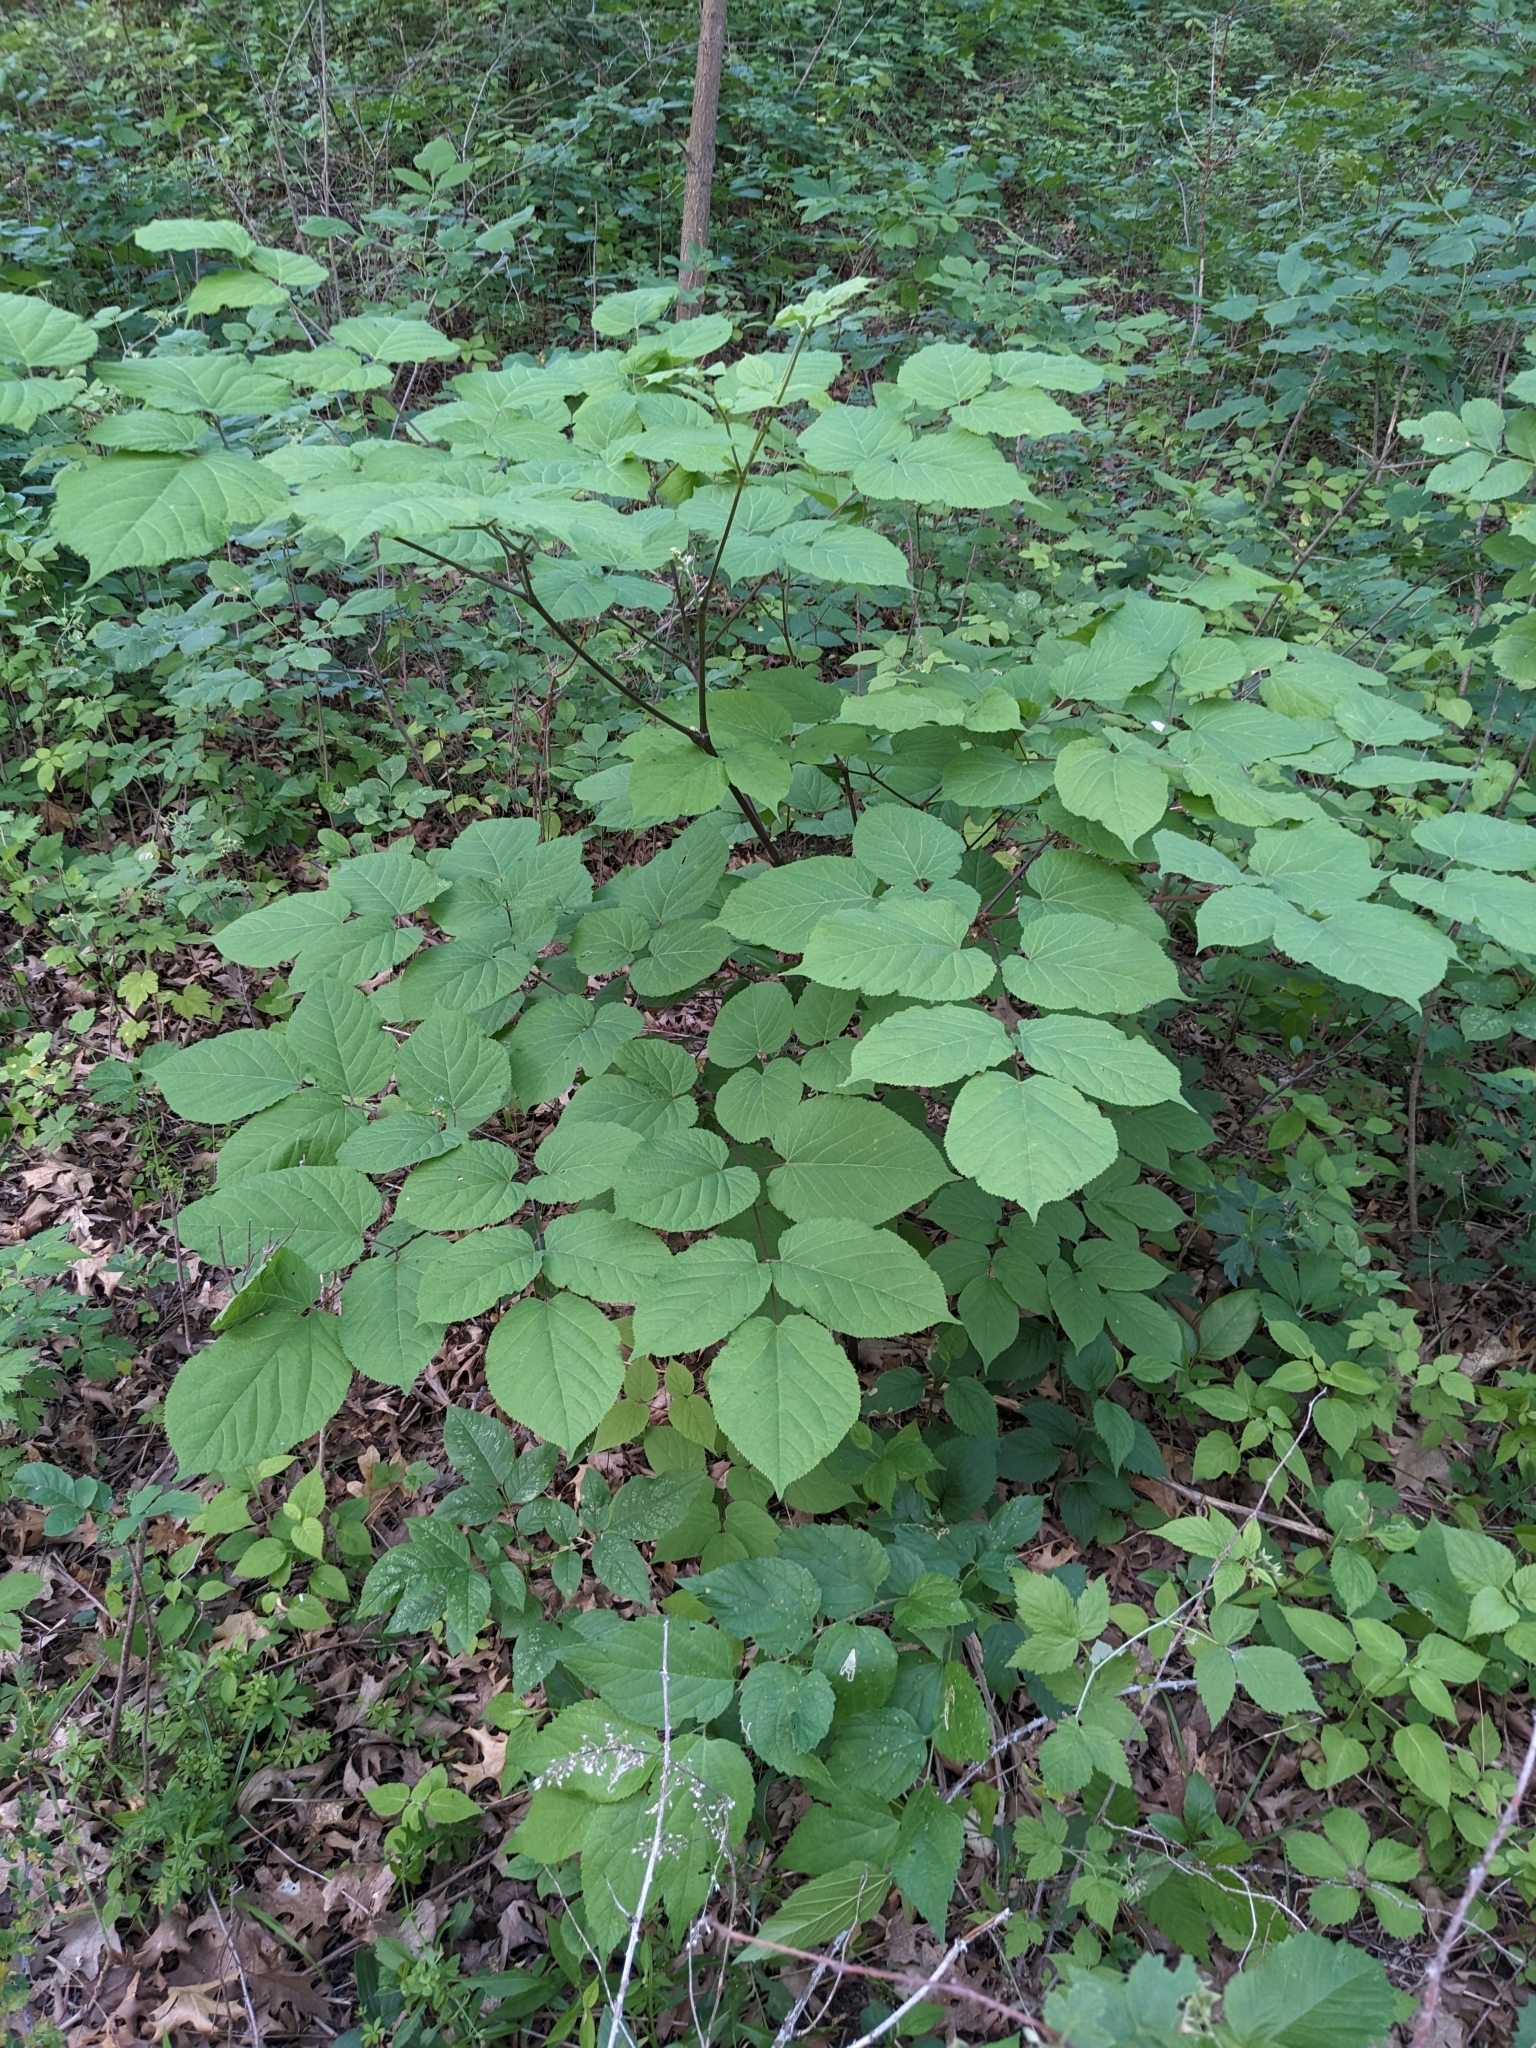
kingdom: Plantae
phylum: Tracheophyta
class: Magnoliopsida
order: Apiales
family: Araliaceae
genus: Aralia
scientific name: Aralia racemosa
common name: American-spikenard
